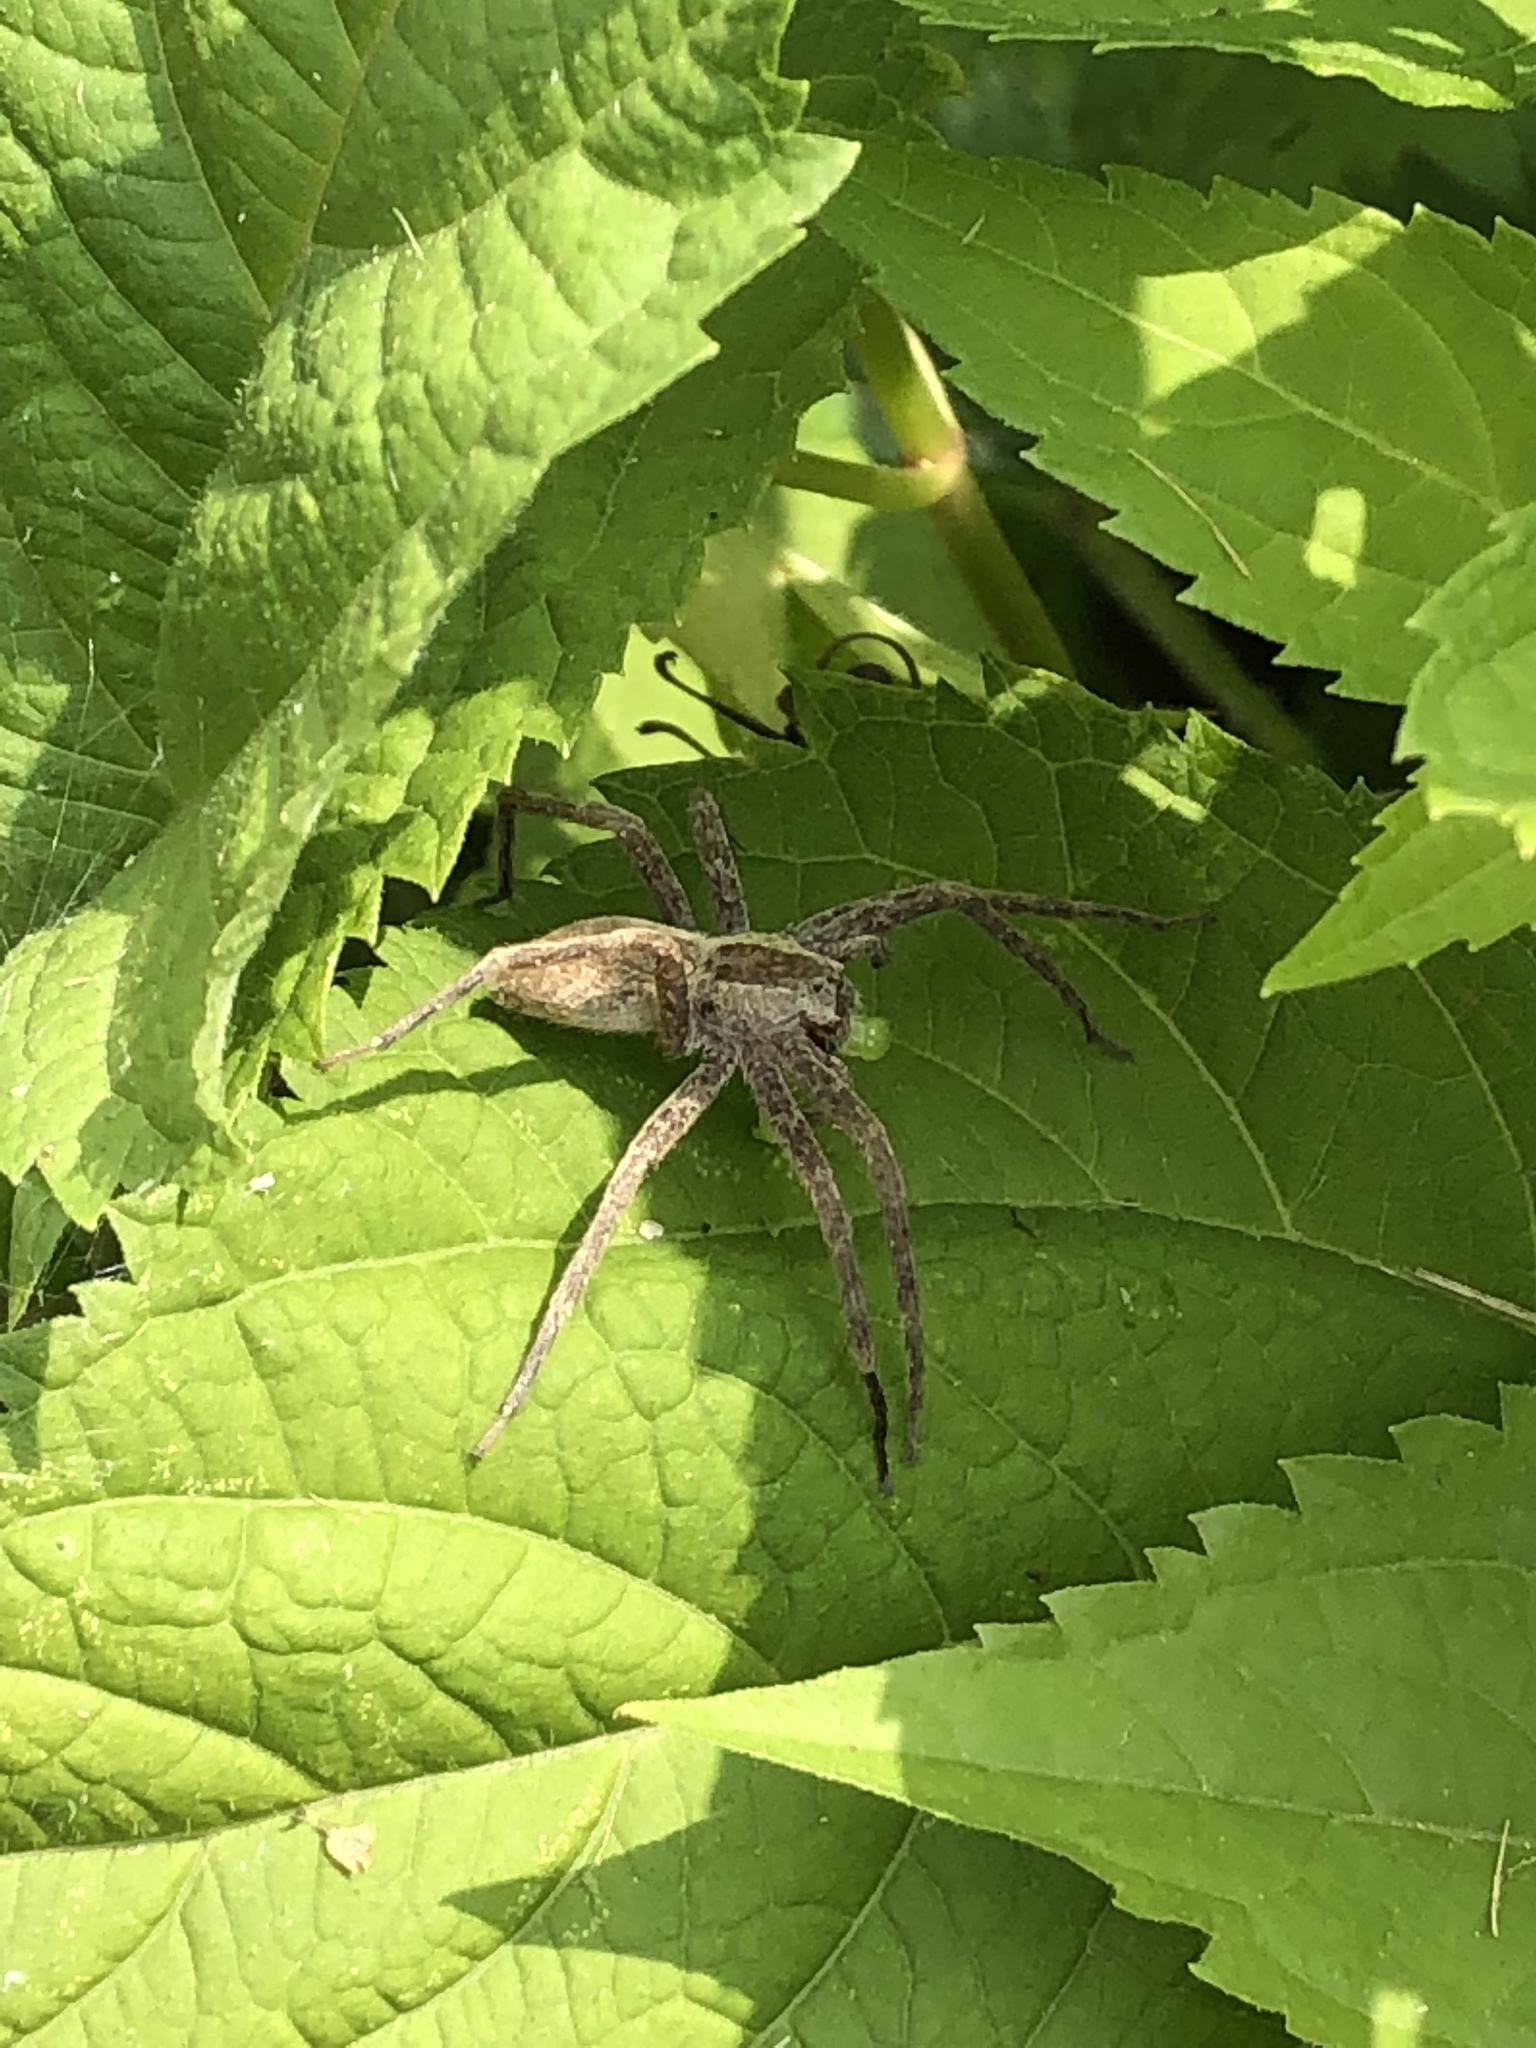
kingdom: Animalia
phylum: Arthropoda
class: Arachnida
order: Araneae
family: Pisauridae
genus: Pisaurina
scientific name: Pisaurina mira
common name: American nursery web spider
